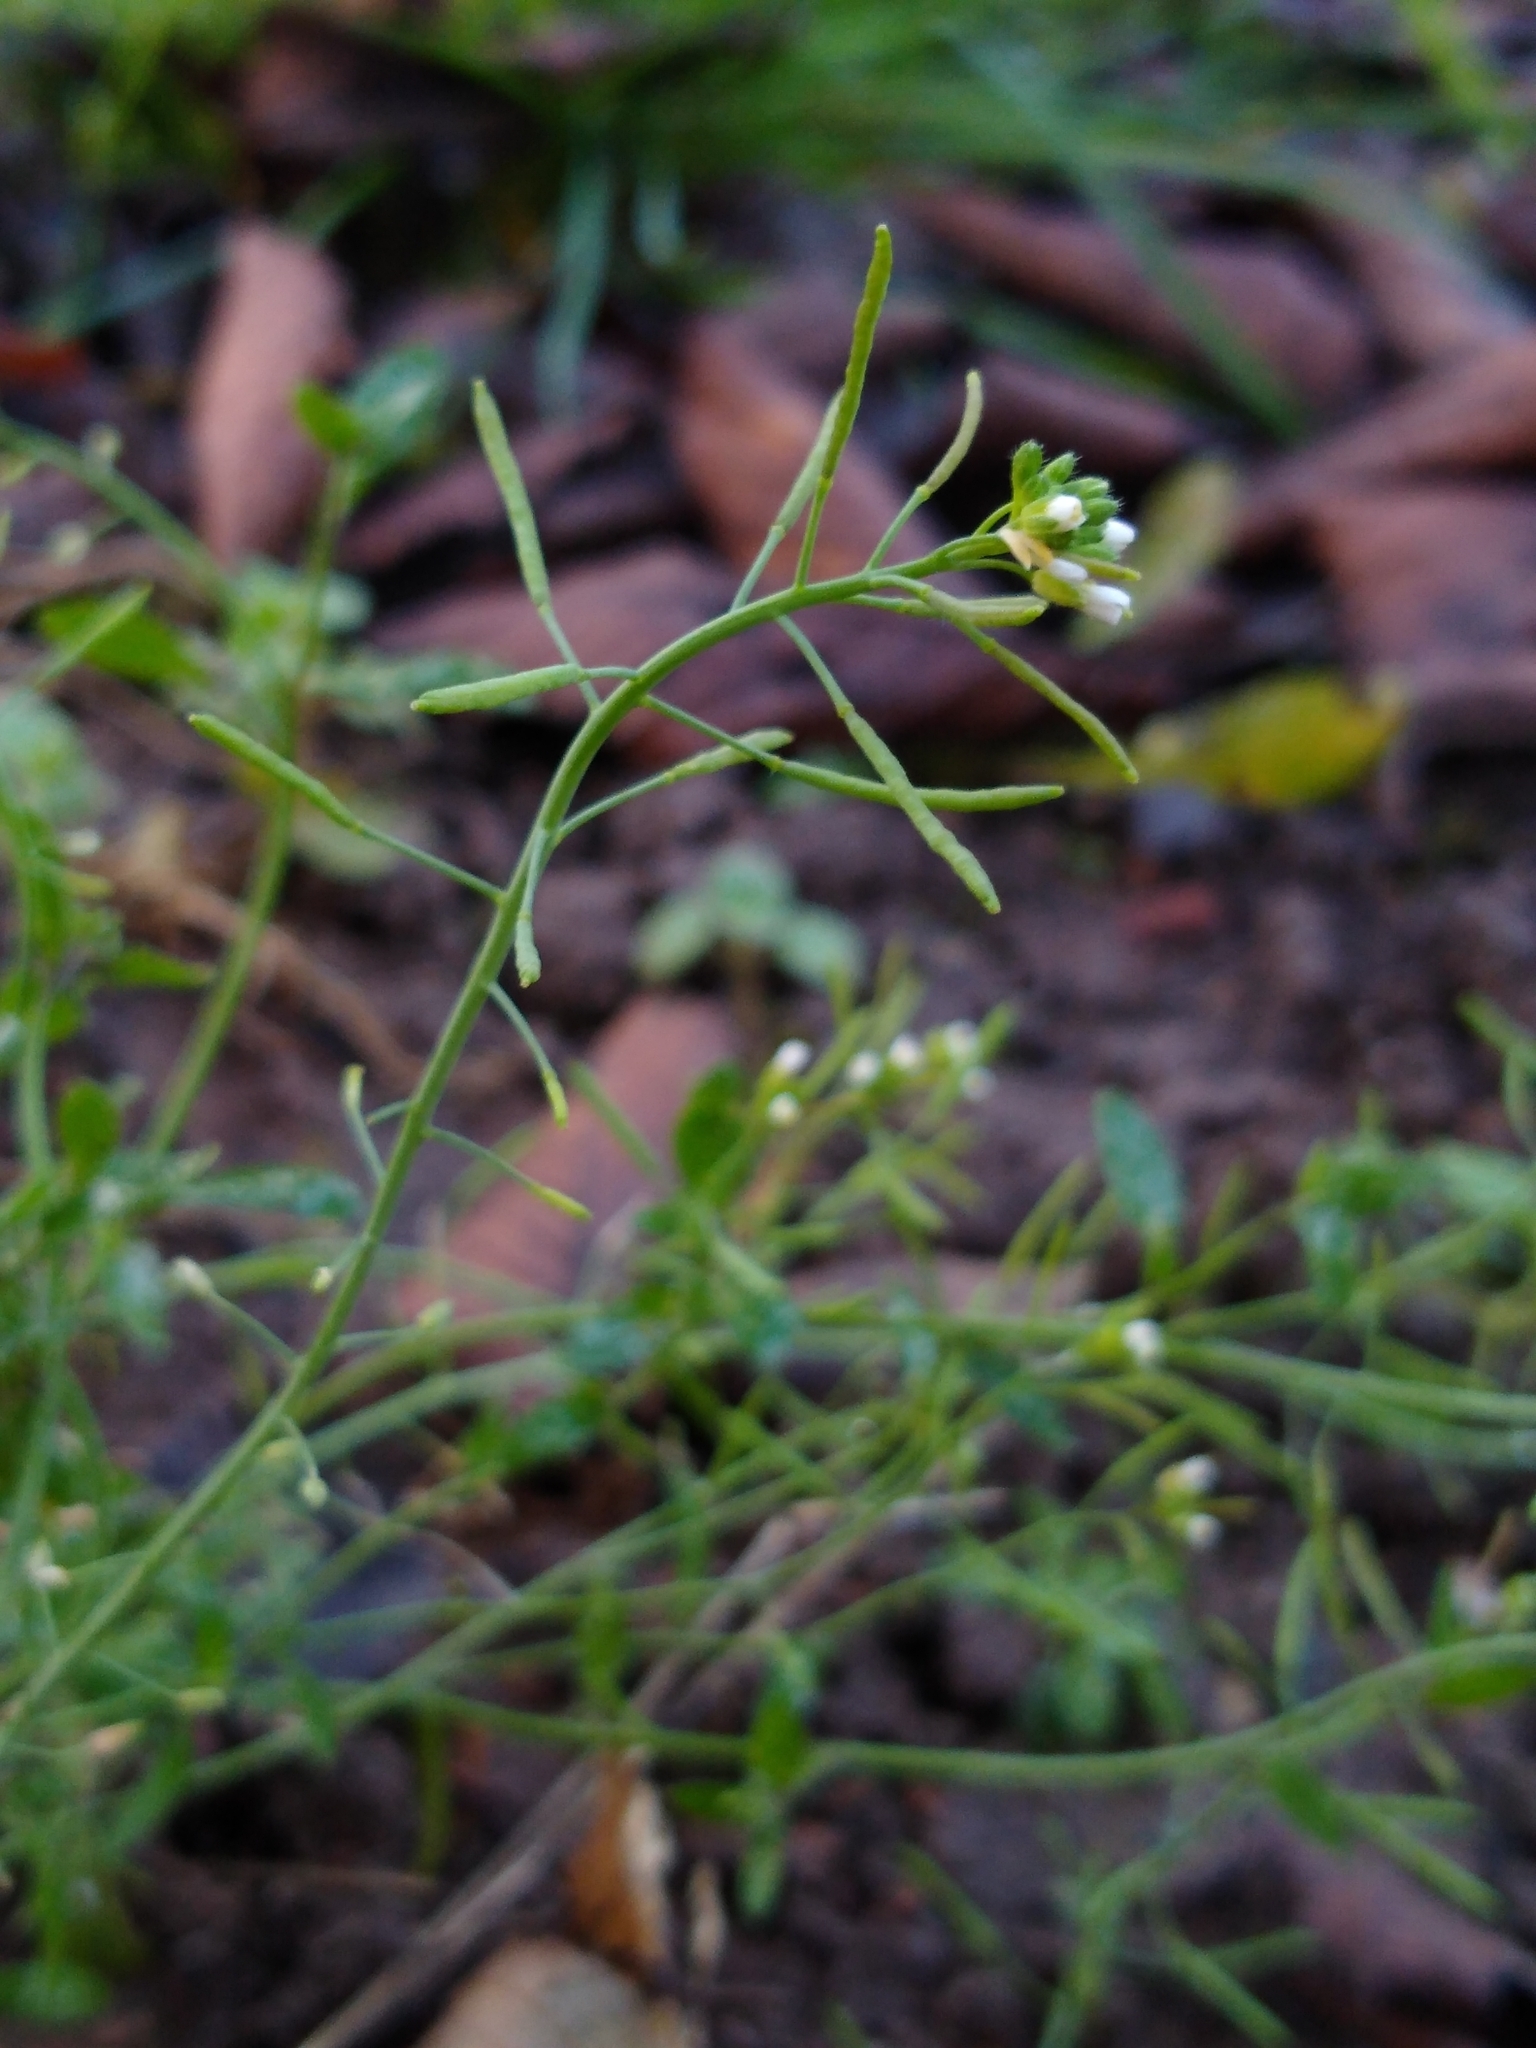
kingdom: Plantae
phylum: Tracheophyta
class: Magnoliopsida
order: Brassicales
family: Brassicaceae
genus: Arabidopsis
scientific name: Arabidopsis thaliana
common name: Thale cress
